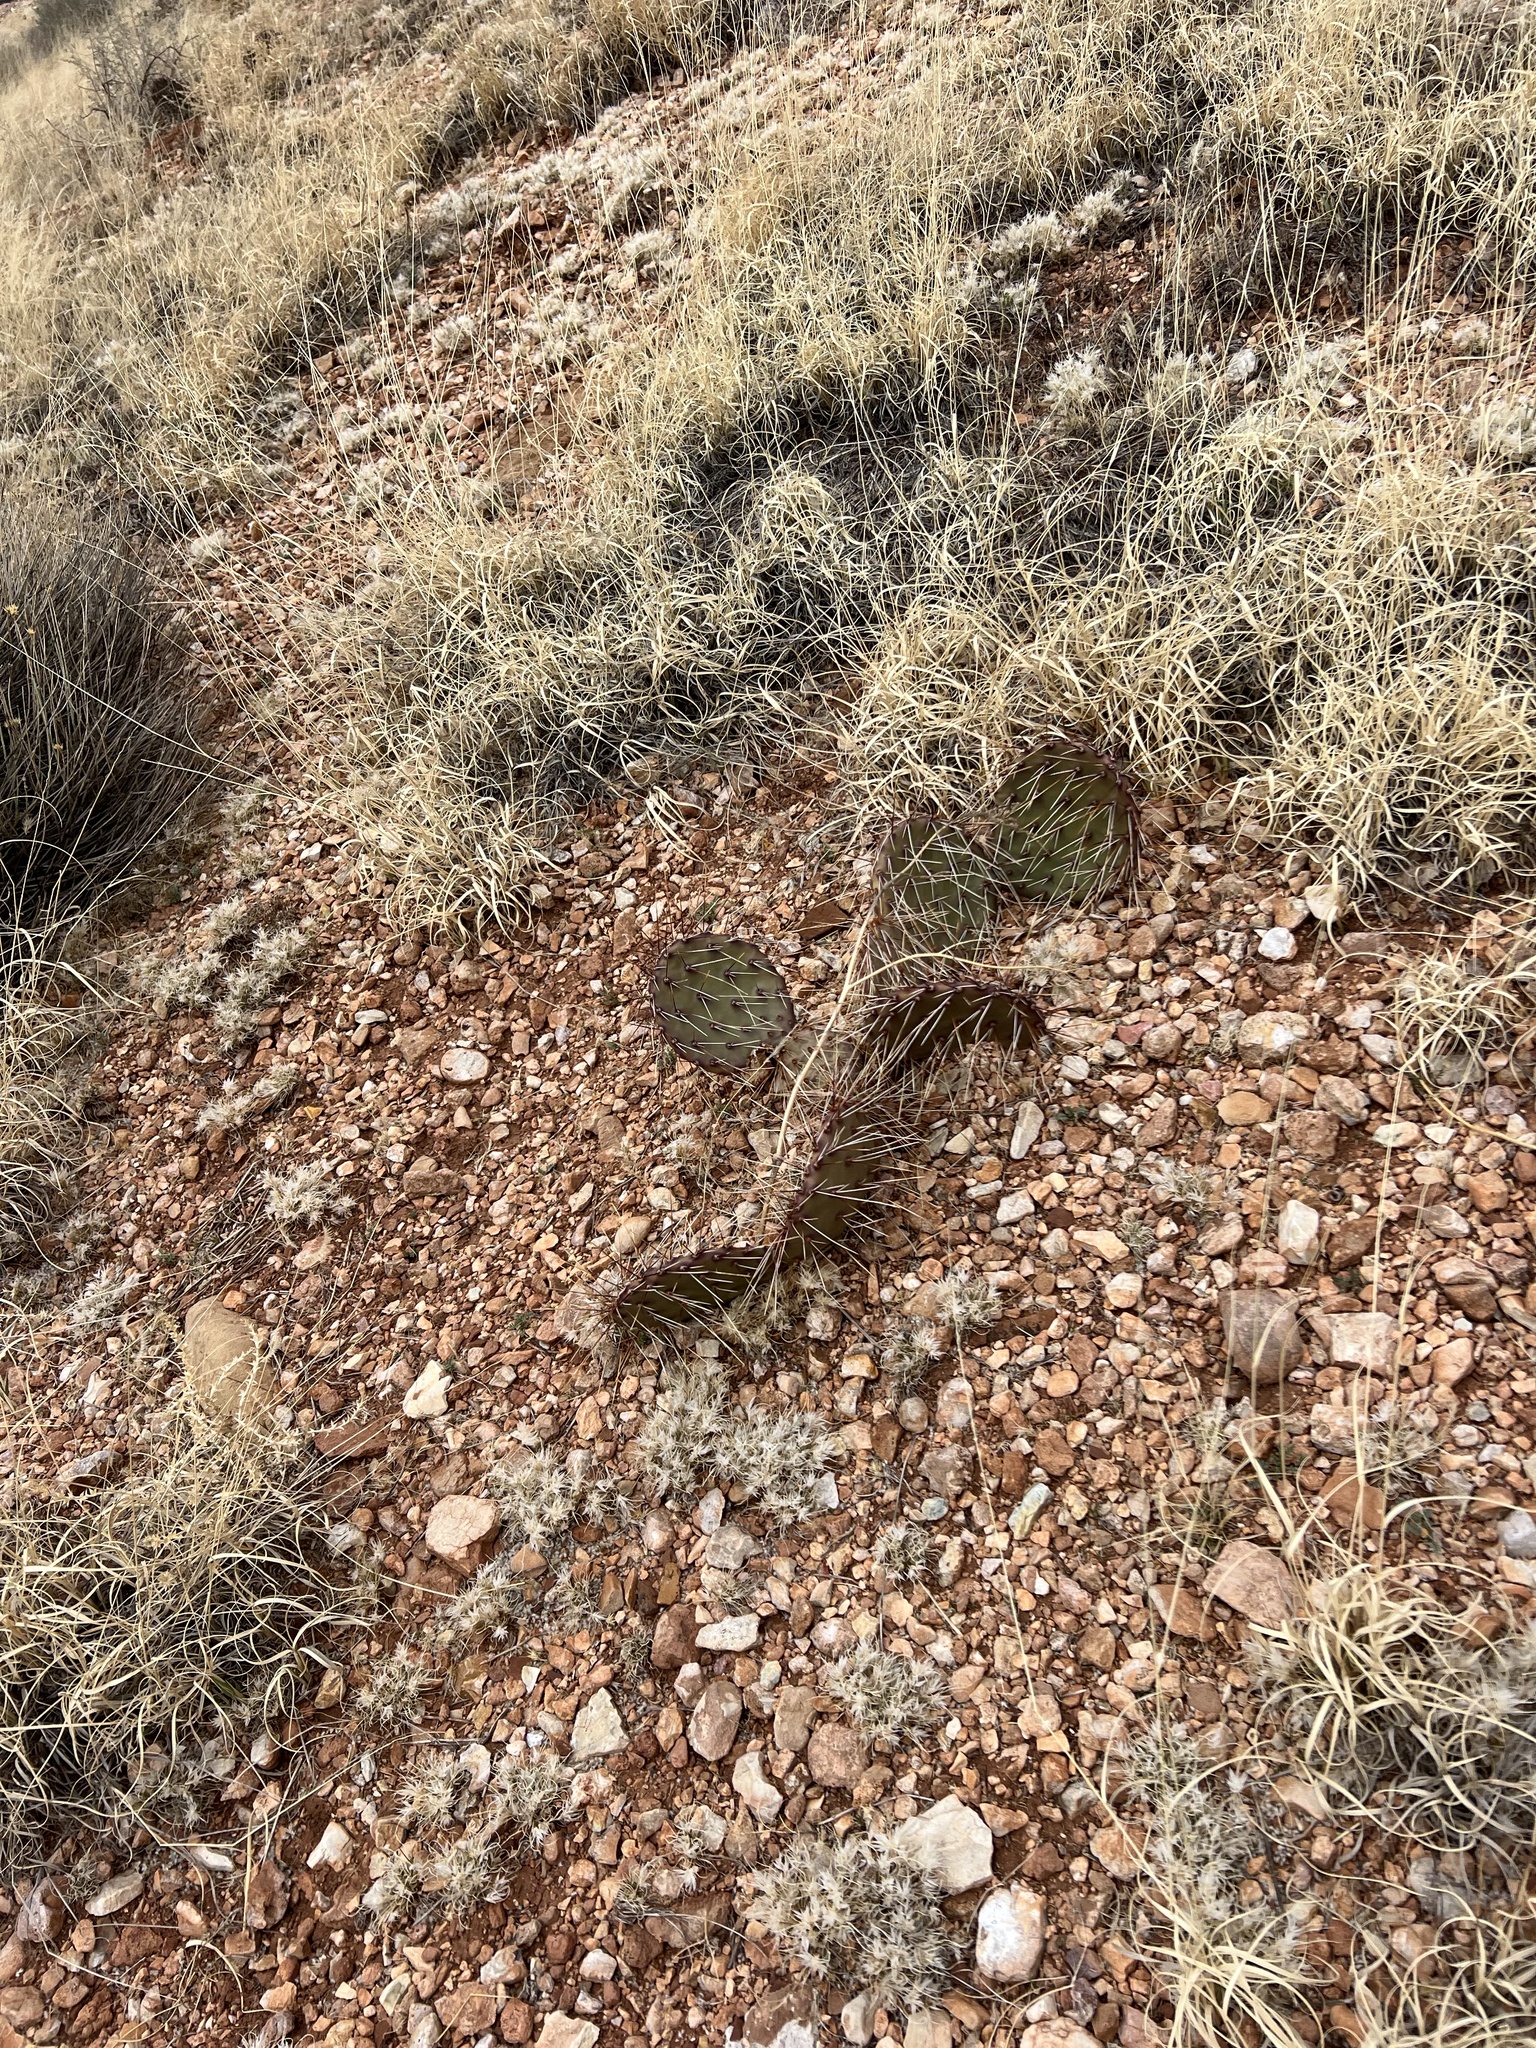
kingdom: Plantae
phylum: Tracheophyta
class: Magnoliopsida
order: Caryophyllales
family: Cactaceae
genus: Opuntia
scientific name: Opuntia phaeacantha
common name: New mexico prickly-pear
